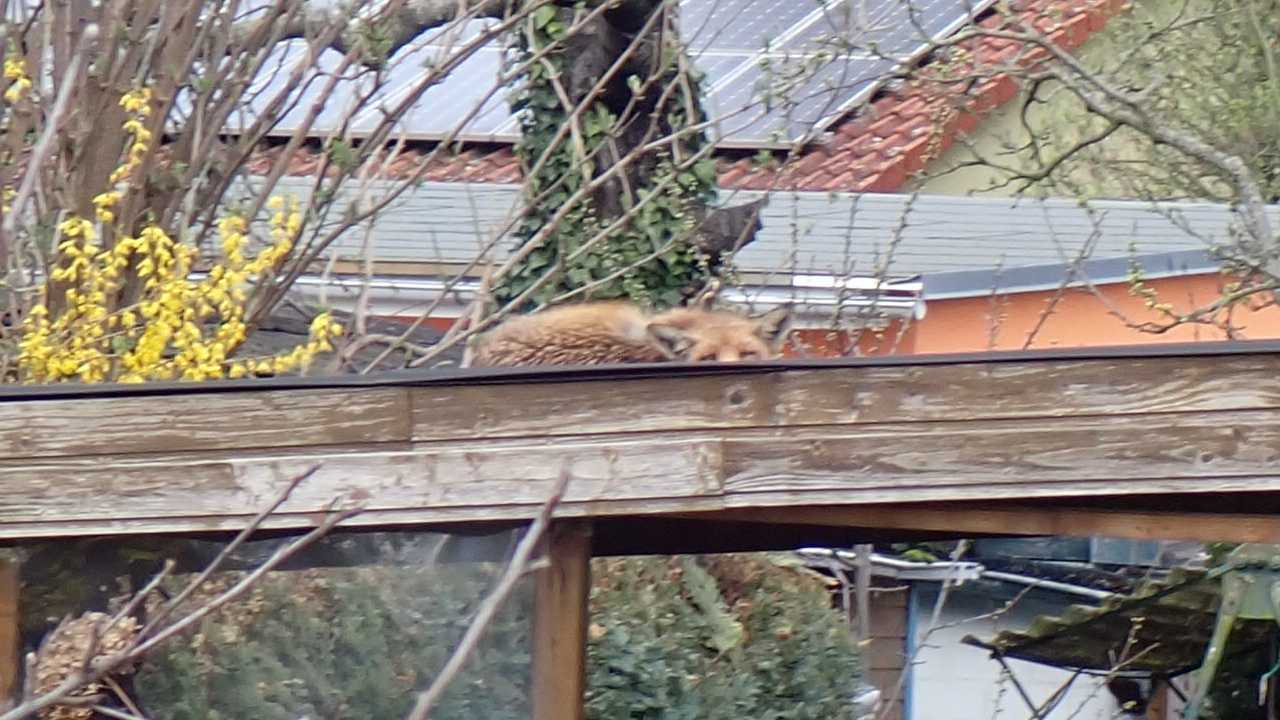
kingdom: Animalia
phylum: Chordata
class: Mammalia
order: Carnivora
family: Canidae
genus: Vulpes
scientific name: Vulpes vulpes
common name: Red fox
